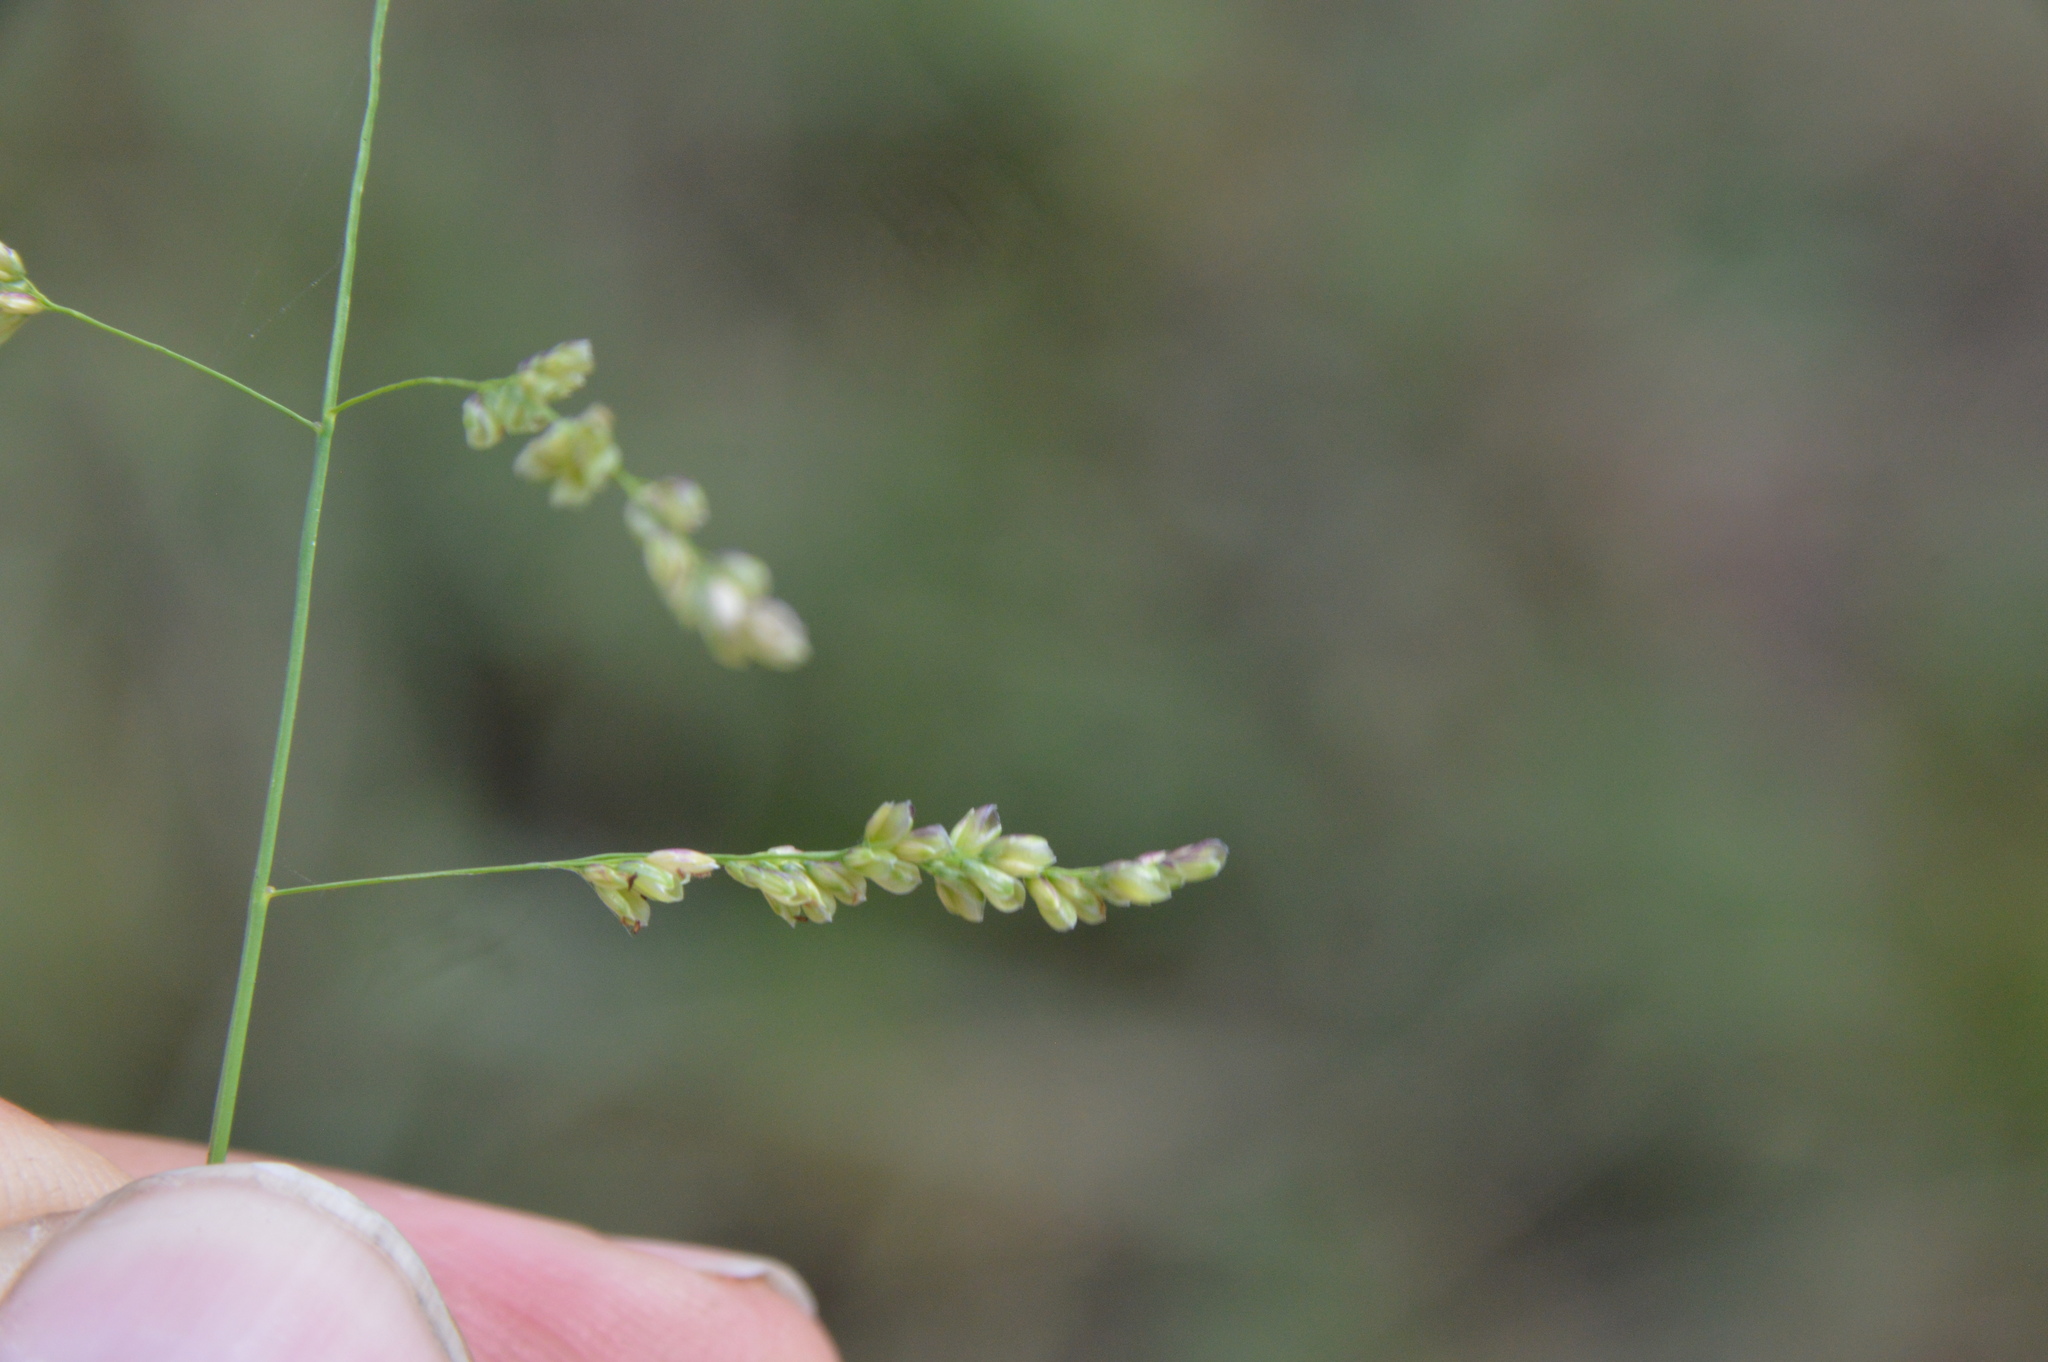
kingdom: Plantae
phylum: Tracheophyta
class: Liliopsida
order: Poales
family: Poaceae
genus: Steinchisma
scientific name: Steinchisma hians
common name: Gaping panic grass
